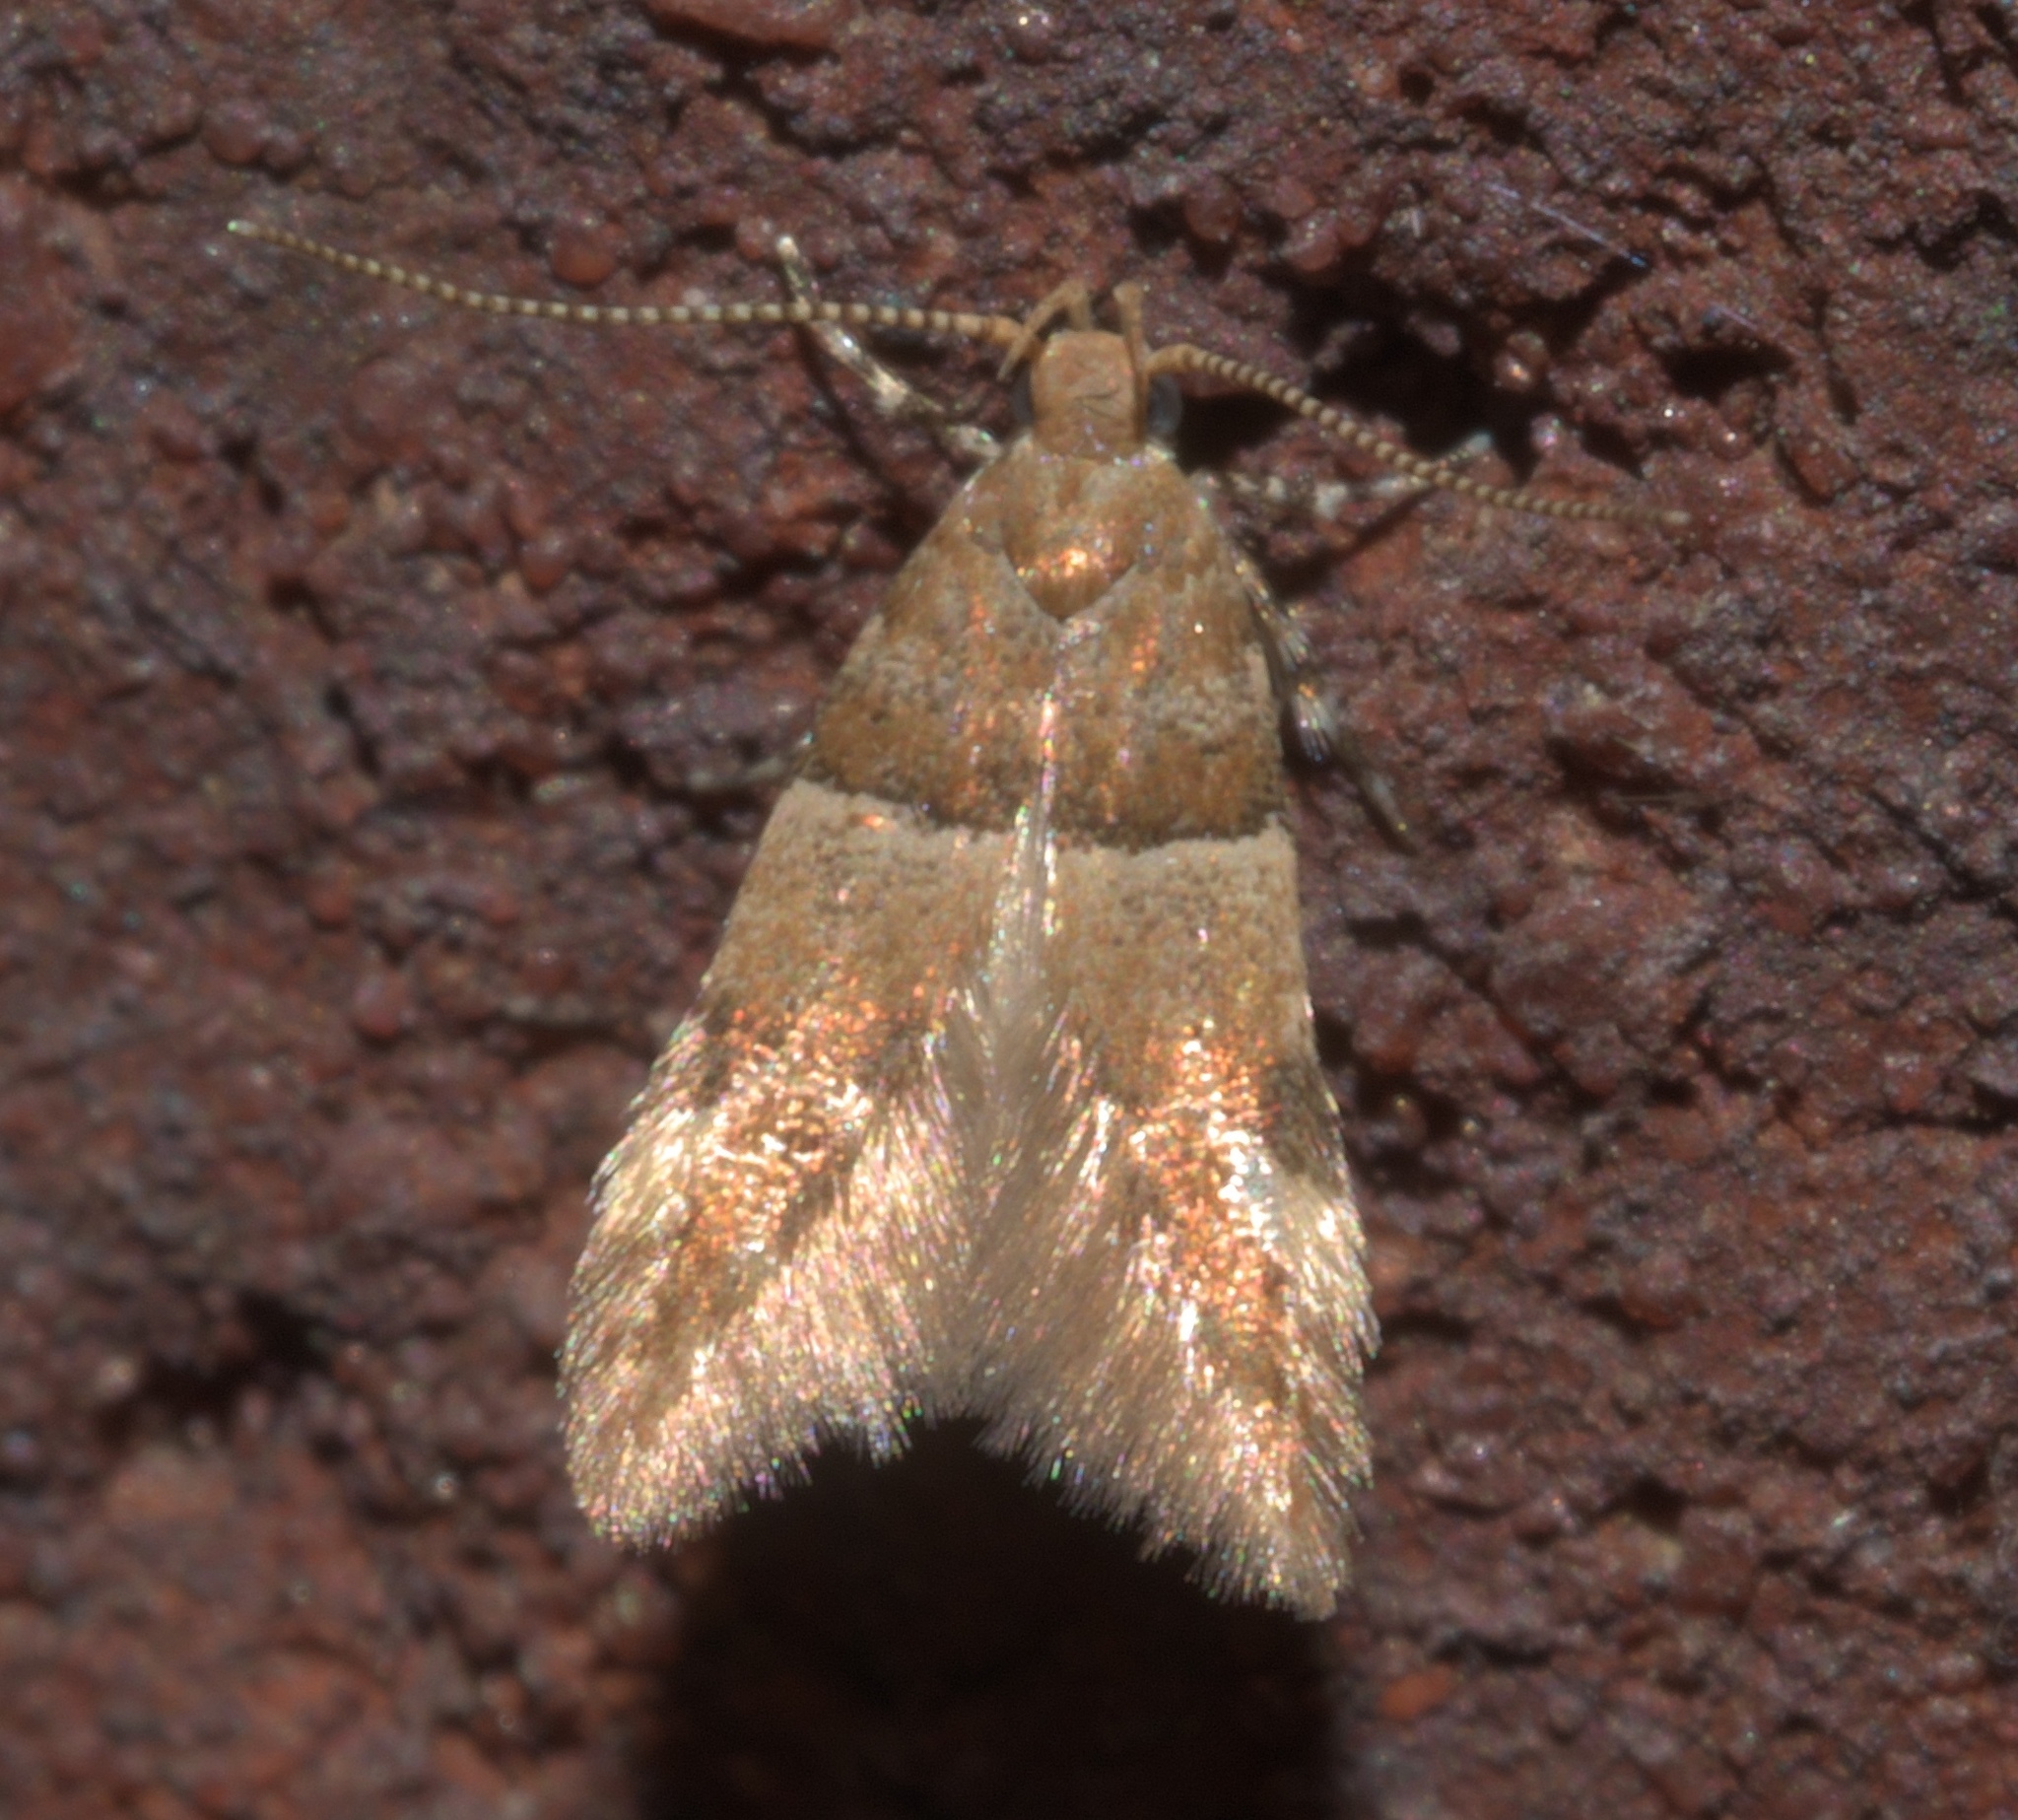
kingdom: Animalia
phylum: Arthropoda
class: Insecta
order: Lepidoptera
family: Gelechiidae
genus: Theisoa
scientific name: Theisoa constrictella
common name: Constricted twirler
